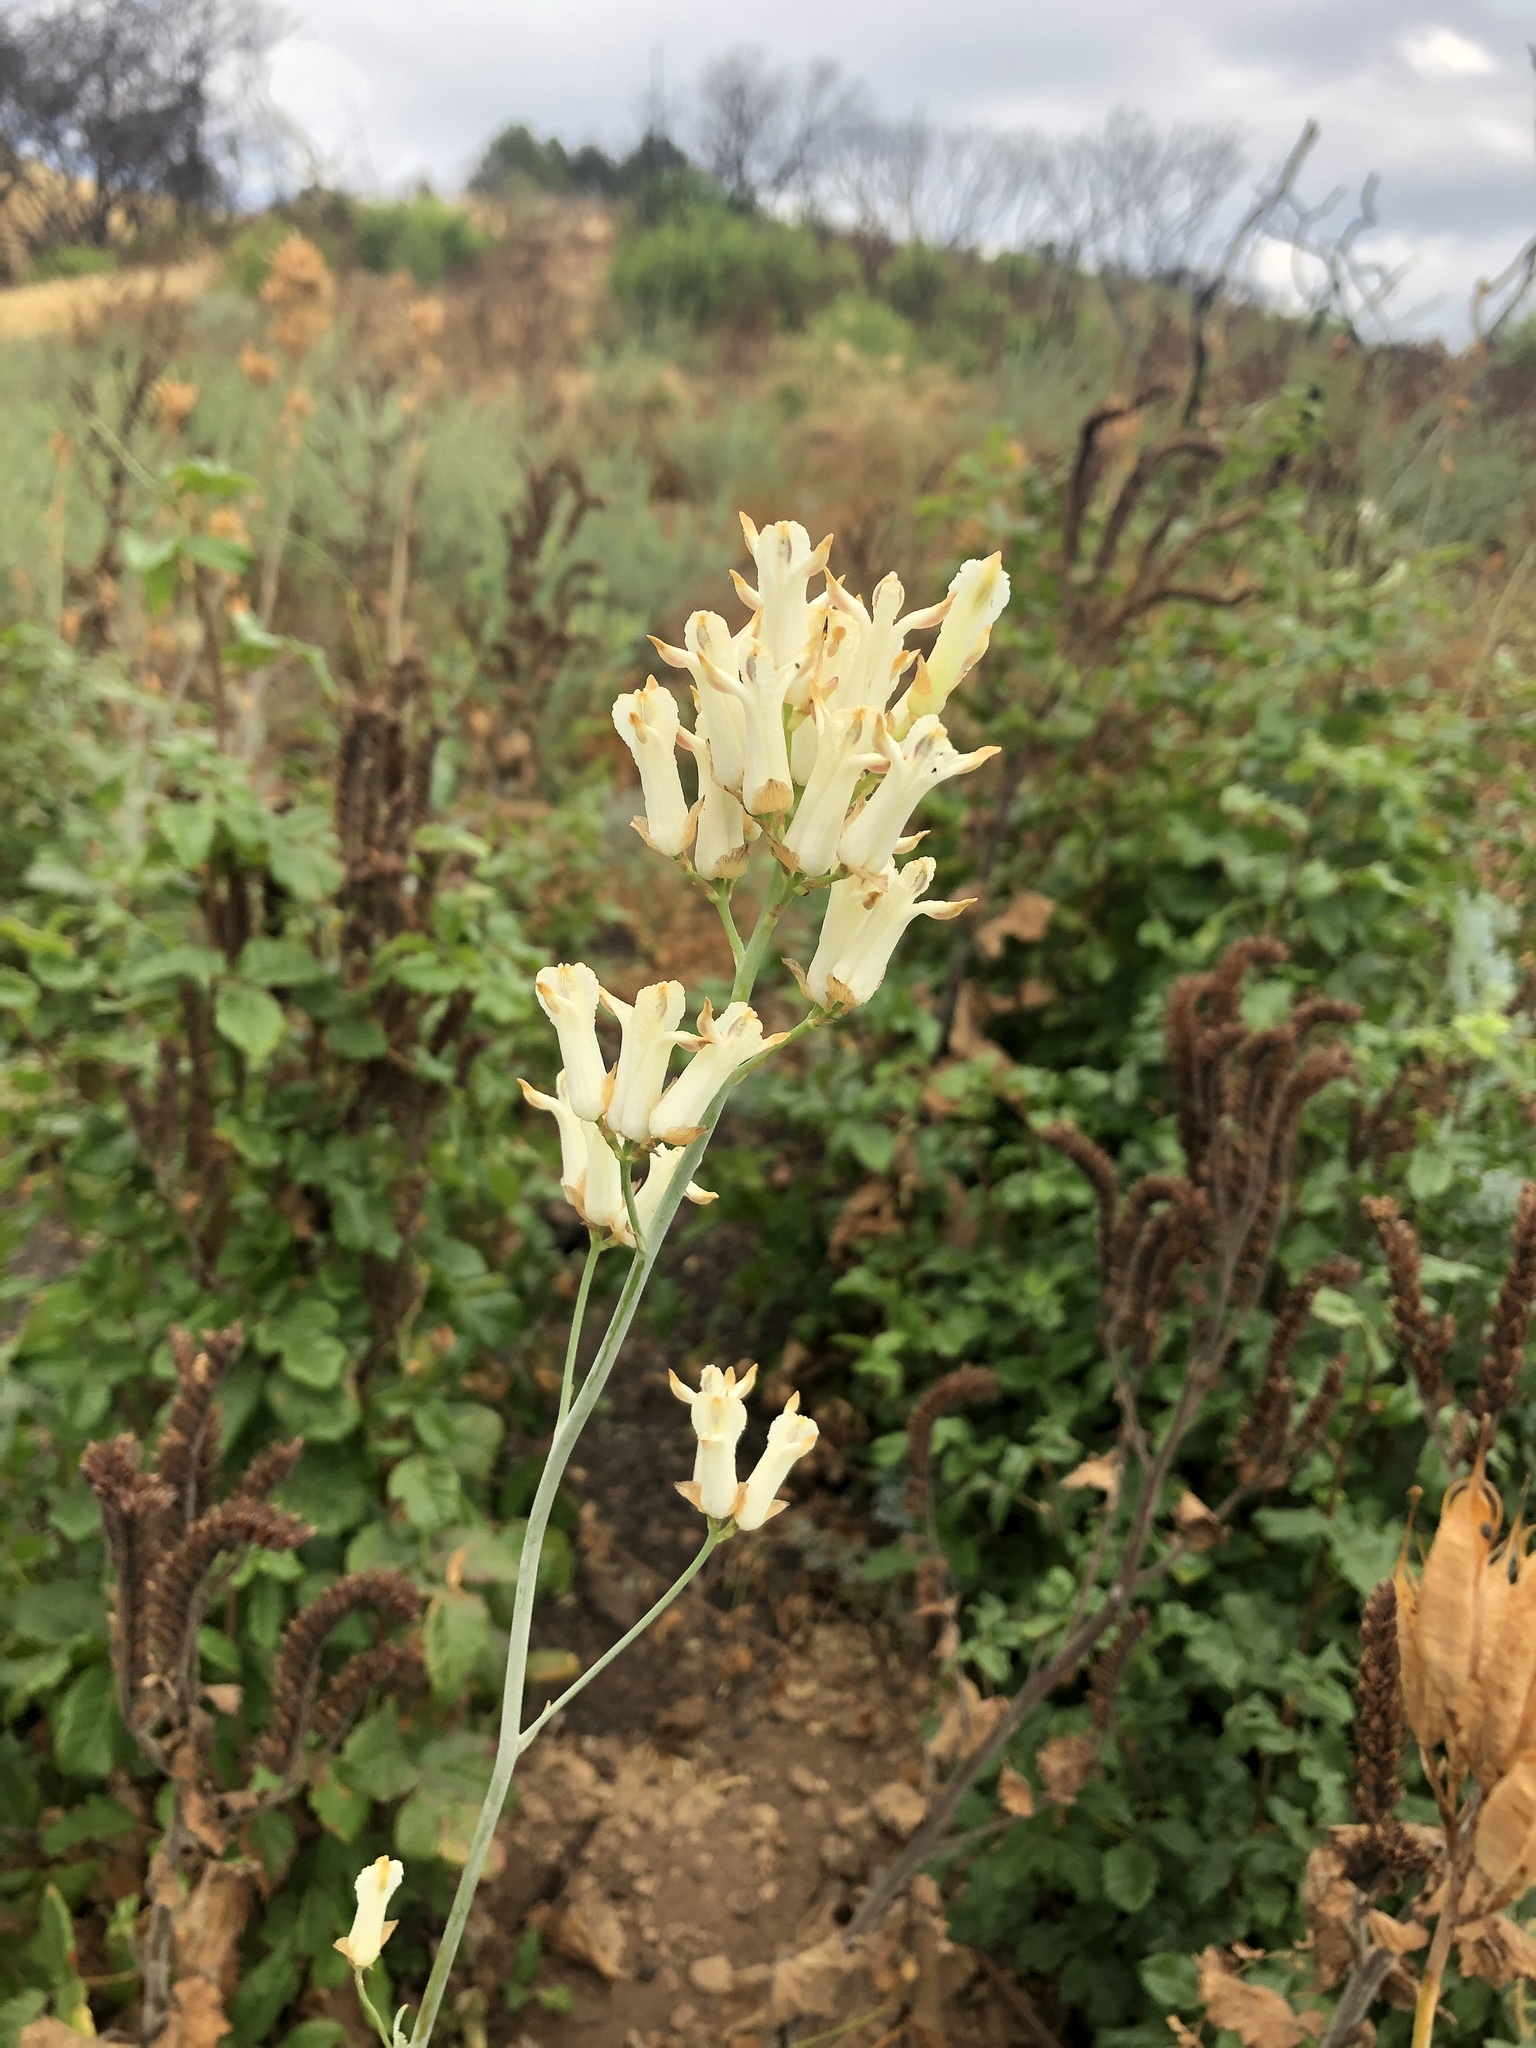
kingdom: Plantae
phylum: Tracheophyta
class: Magnoliopsida
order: Ranunculales
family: Papaveraceae
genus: Ehrendorferia
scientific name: Ehrendorferia ochroleuca
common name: White eardrops
